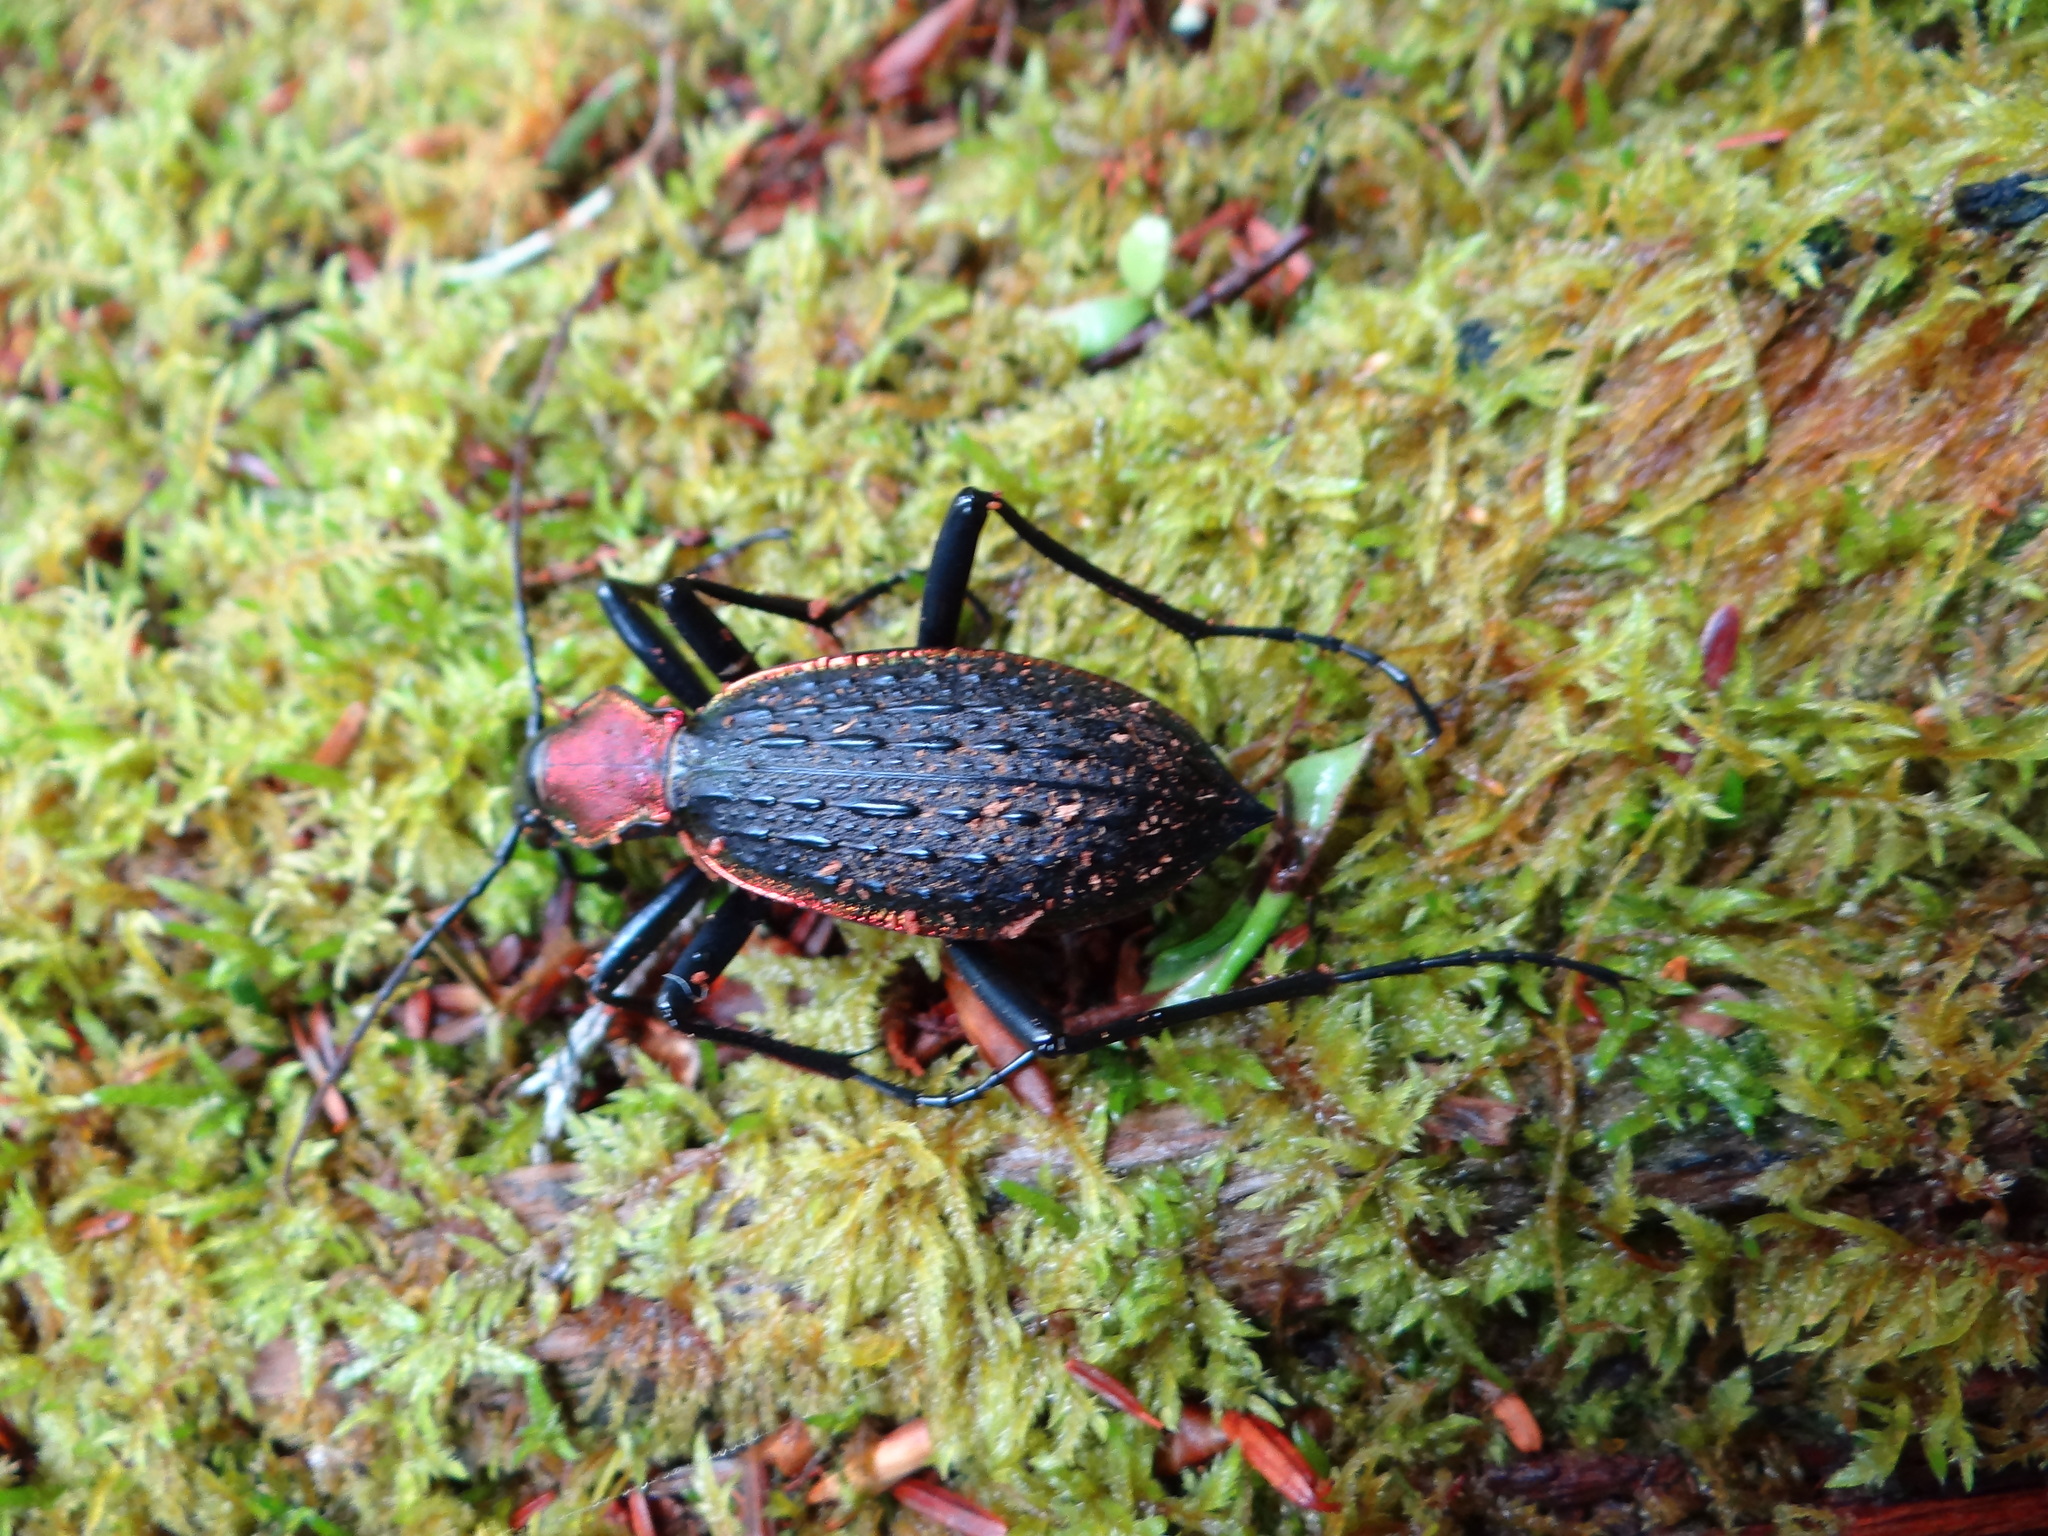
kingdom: Animalia
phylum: Arthropoda
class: Insecta
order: Coleoptera
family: Carabidae
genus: Carabus
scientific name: Carabus nankotaizanus
